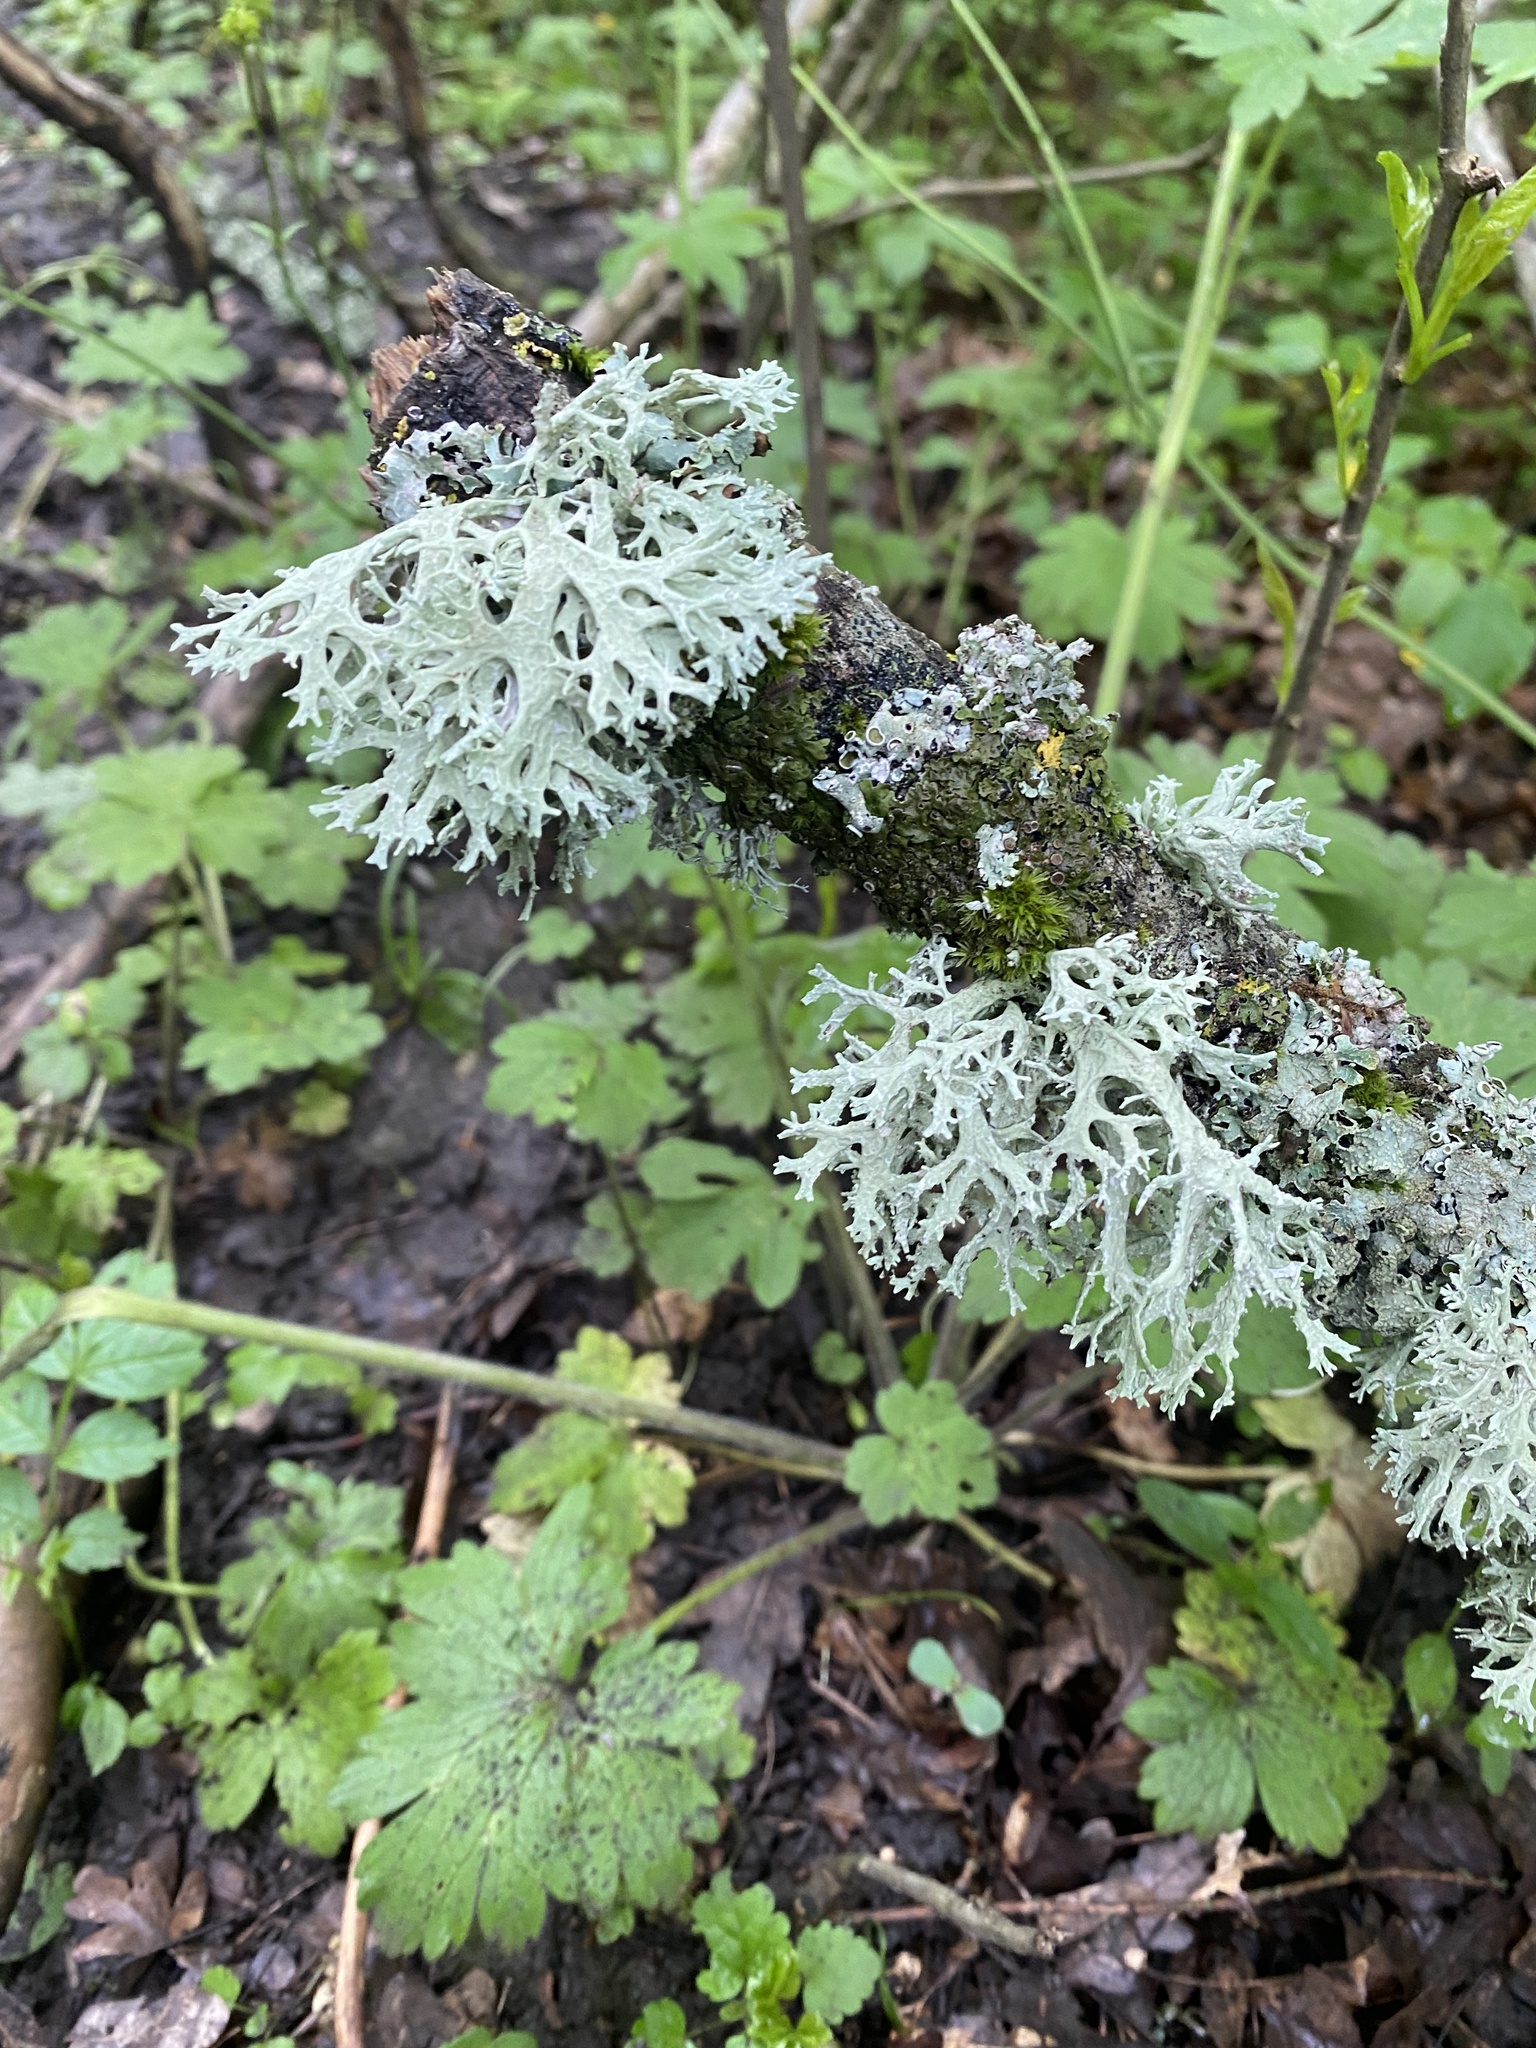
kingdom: Fungi
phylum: Ascomycota
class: Lecanoromycetes
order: Lecanorales
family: Parmeliaceae
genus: Evernia
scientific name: Evernia prunastri
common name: Oak moss
